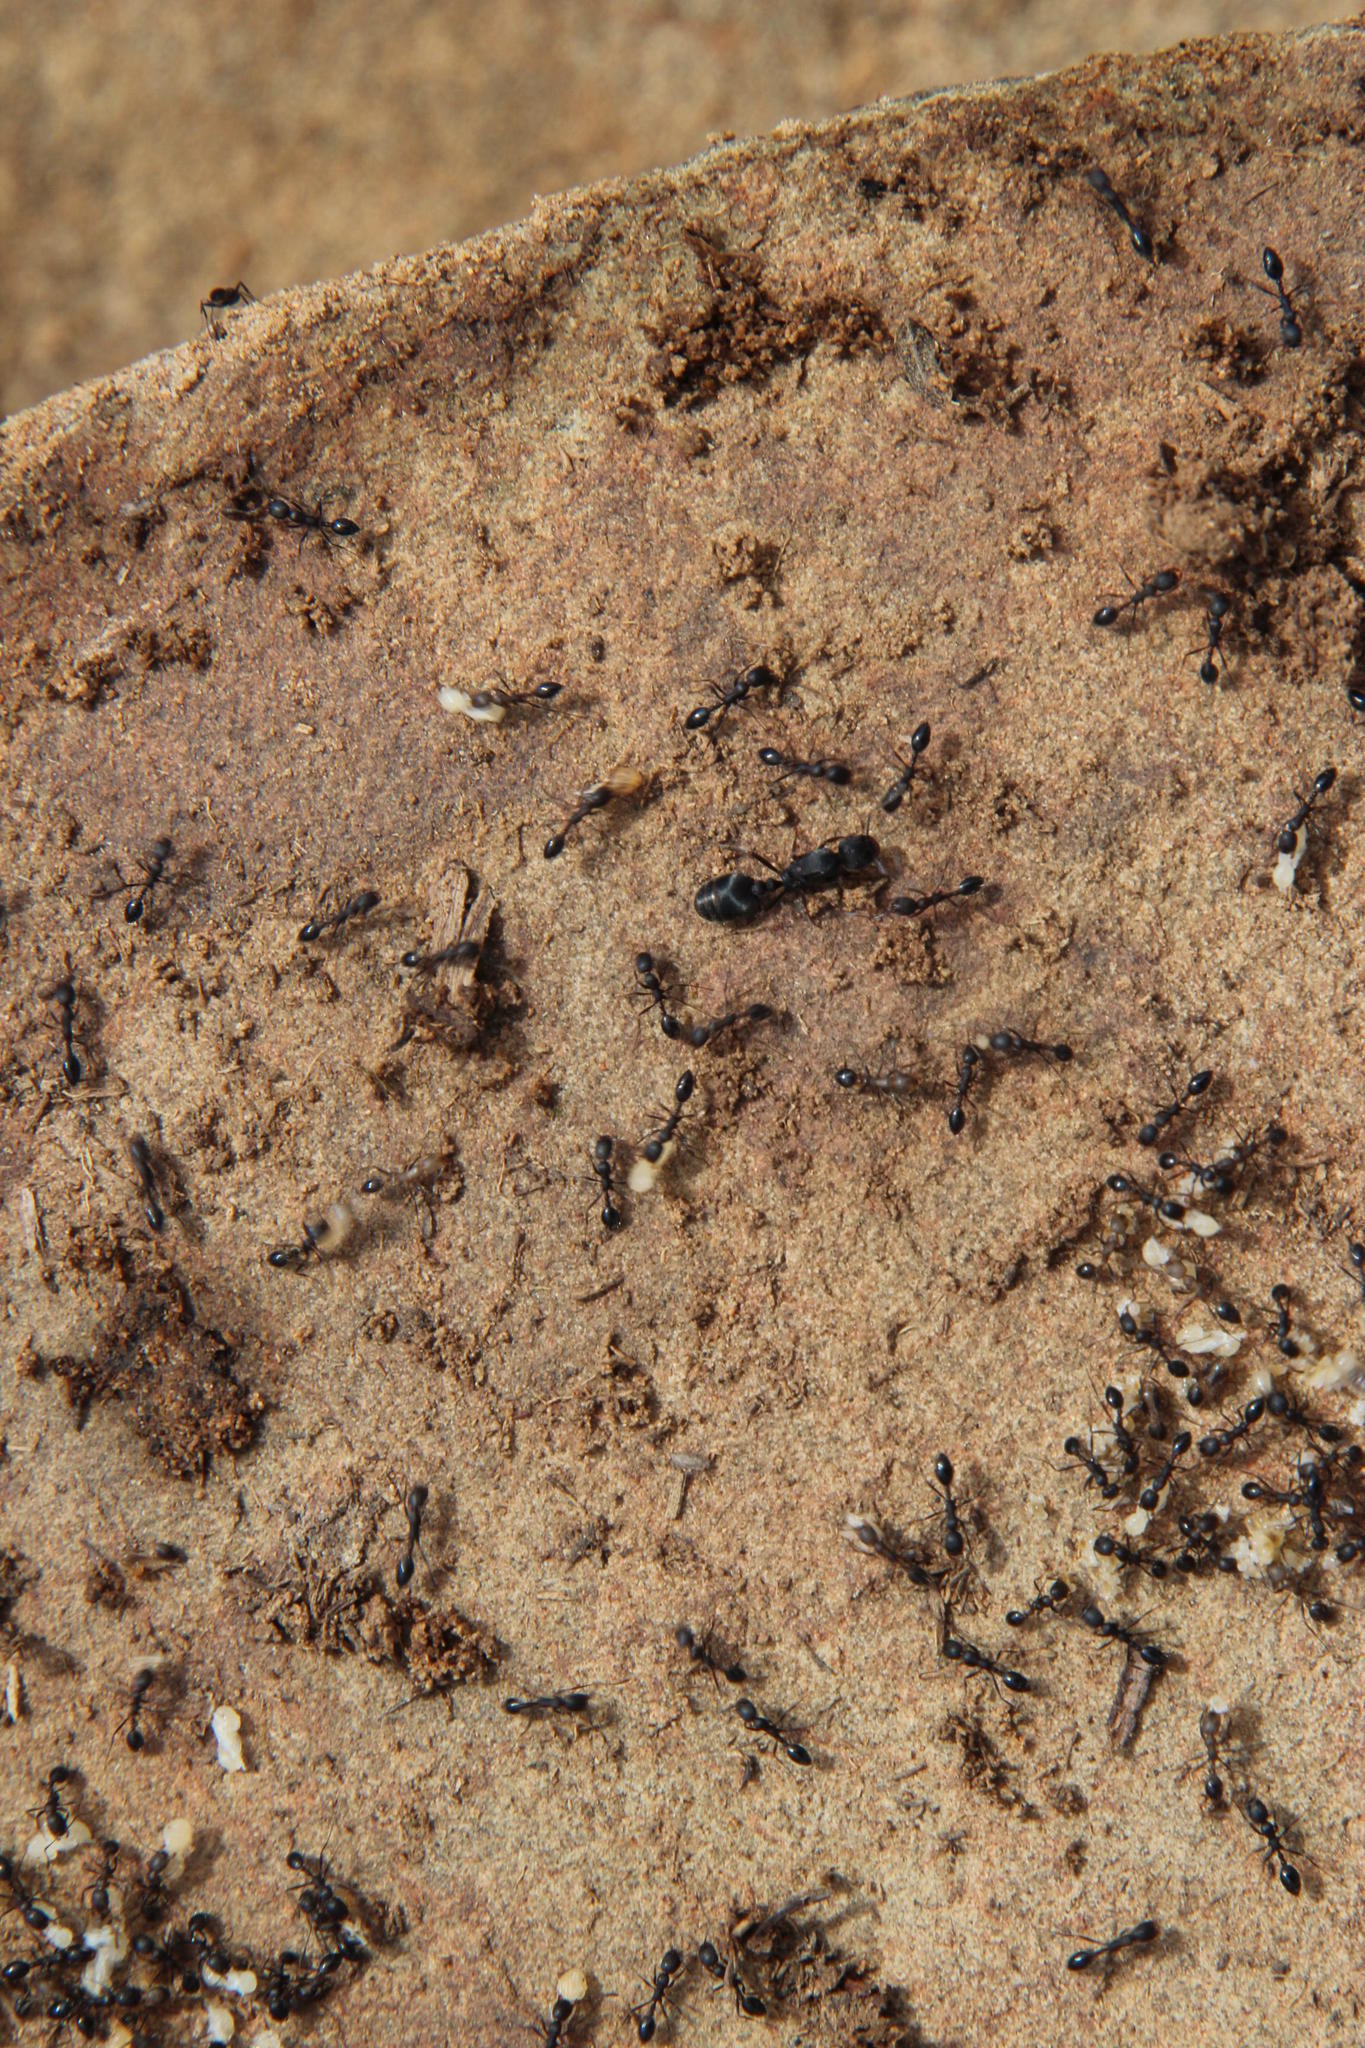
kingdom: Animalia
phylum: Arthropoda
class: Insecta
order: Hymenoptera
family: Formicidae
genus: Monomorium
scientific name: Monomorium junodi
